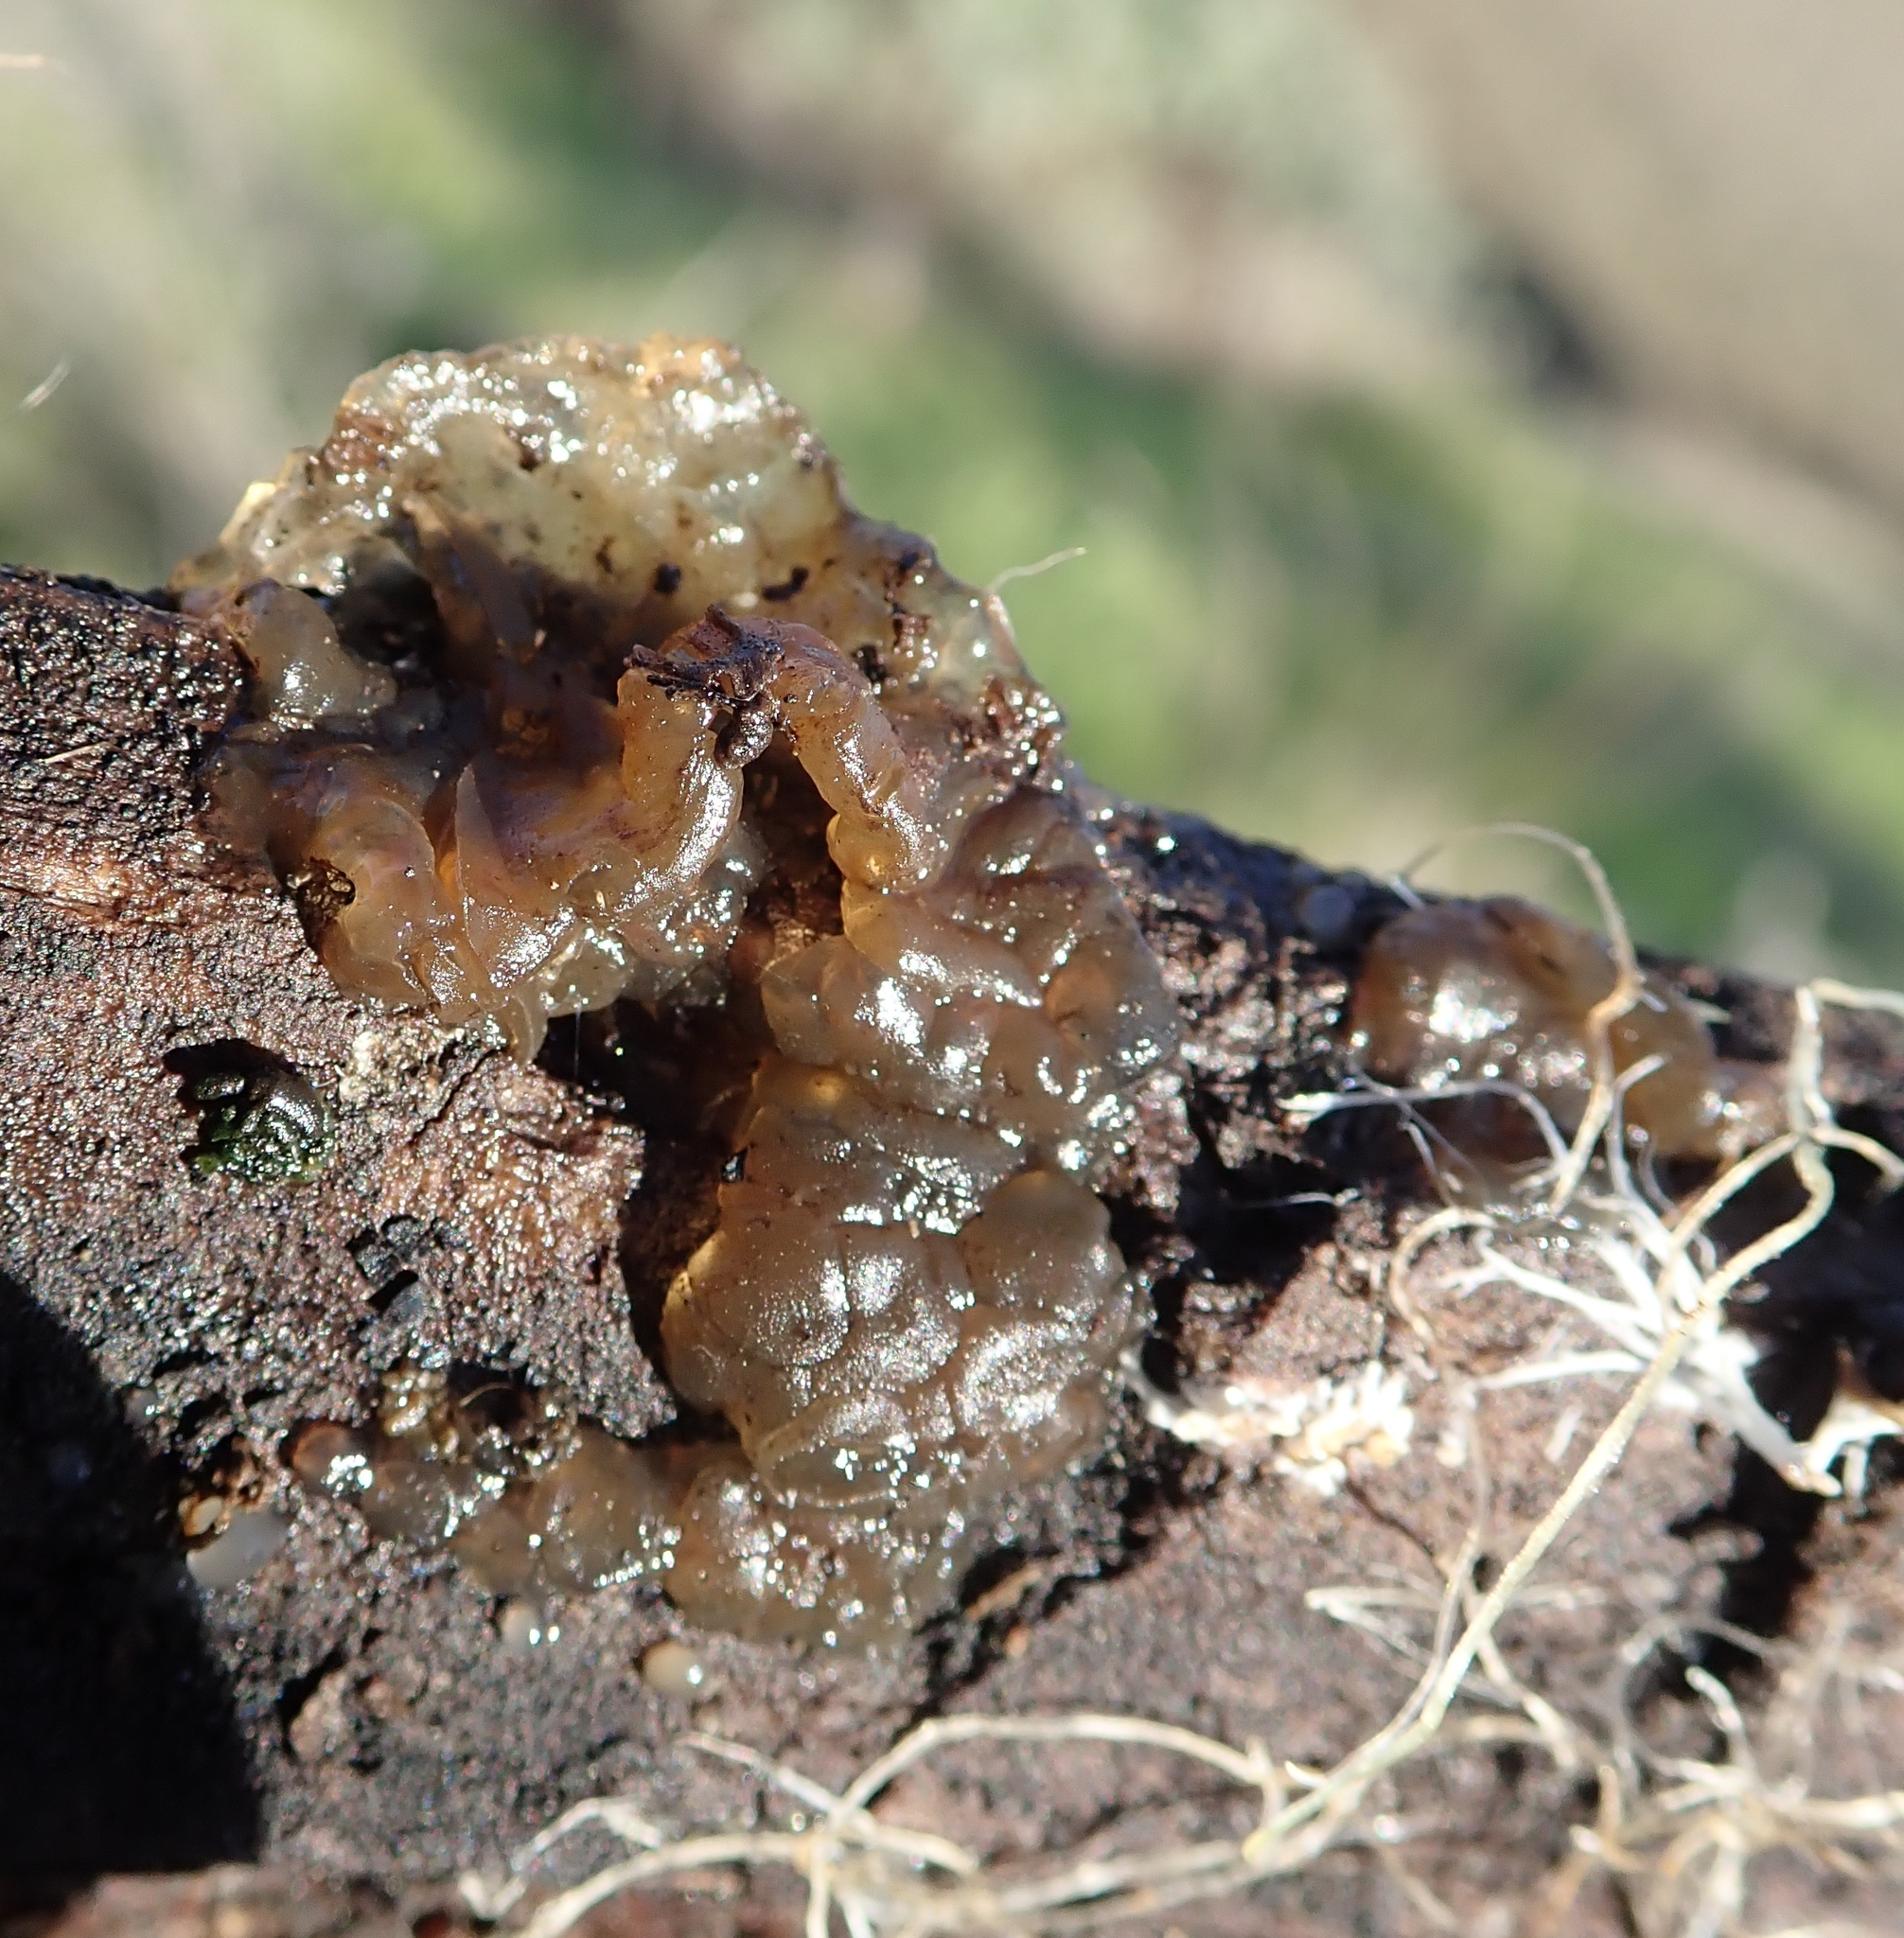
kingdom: Fungi
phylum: Basidiomycota
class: Agaricomycetes
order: Auriculariales
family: Hyaloriaceae
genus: Myxarium
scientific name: Myxarium nucleatum
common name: Crystal brain fungus
